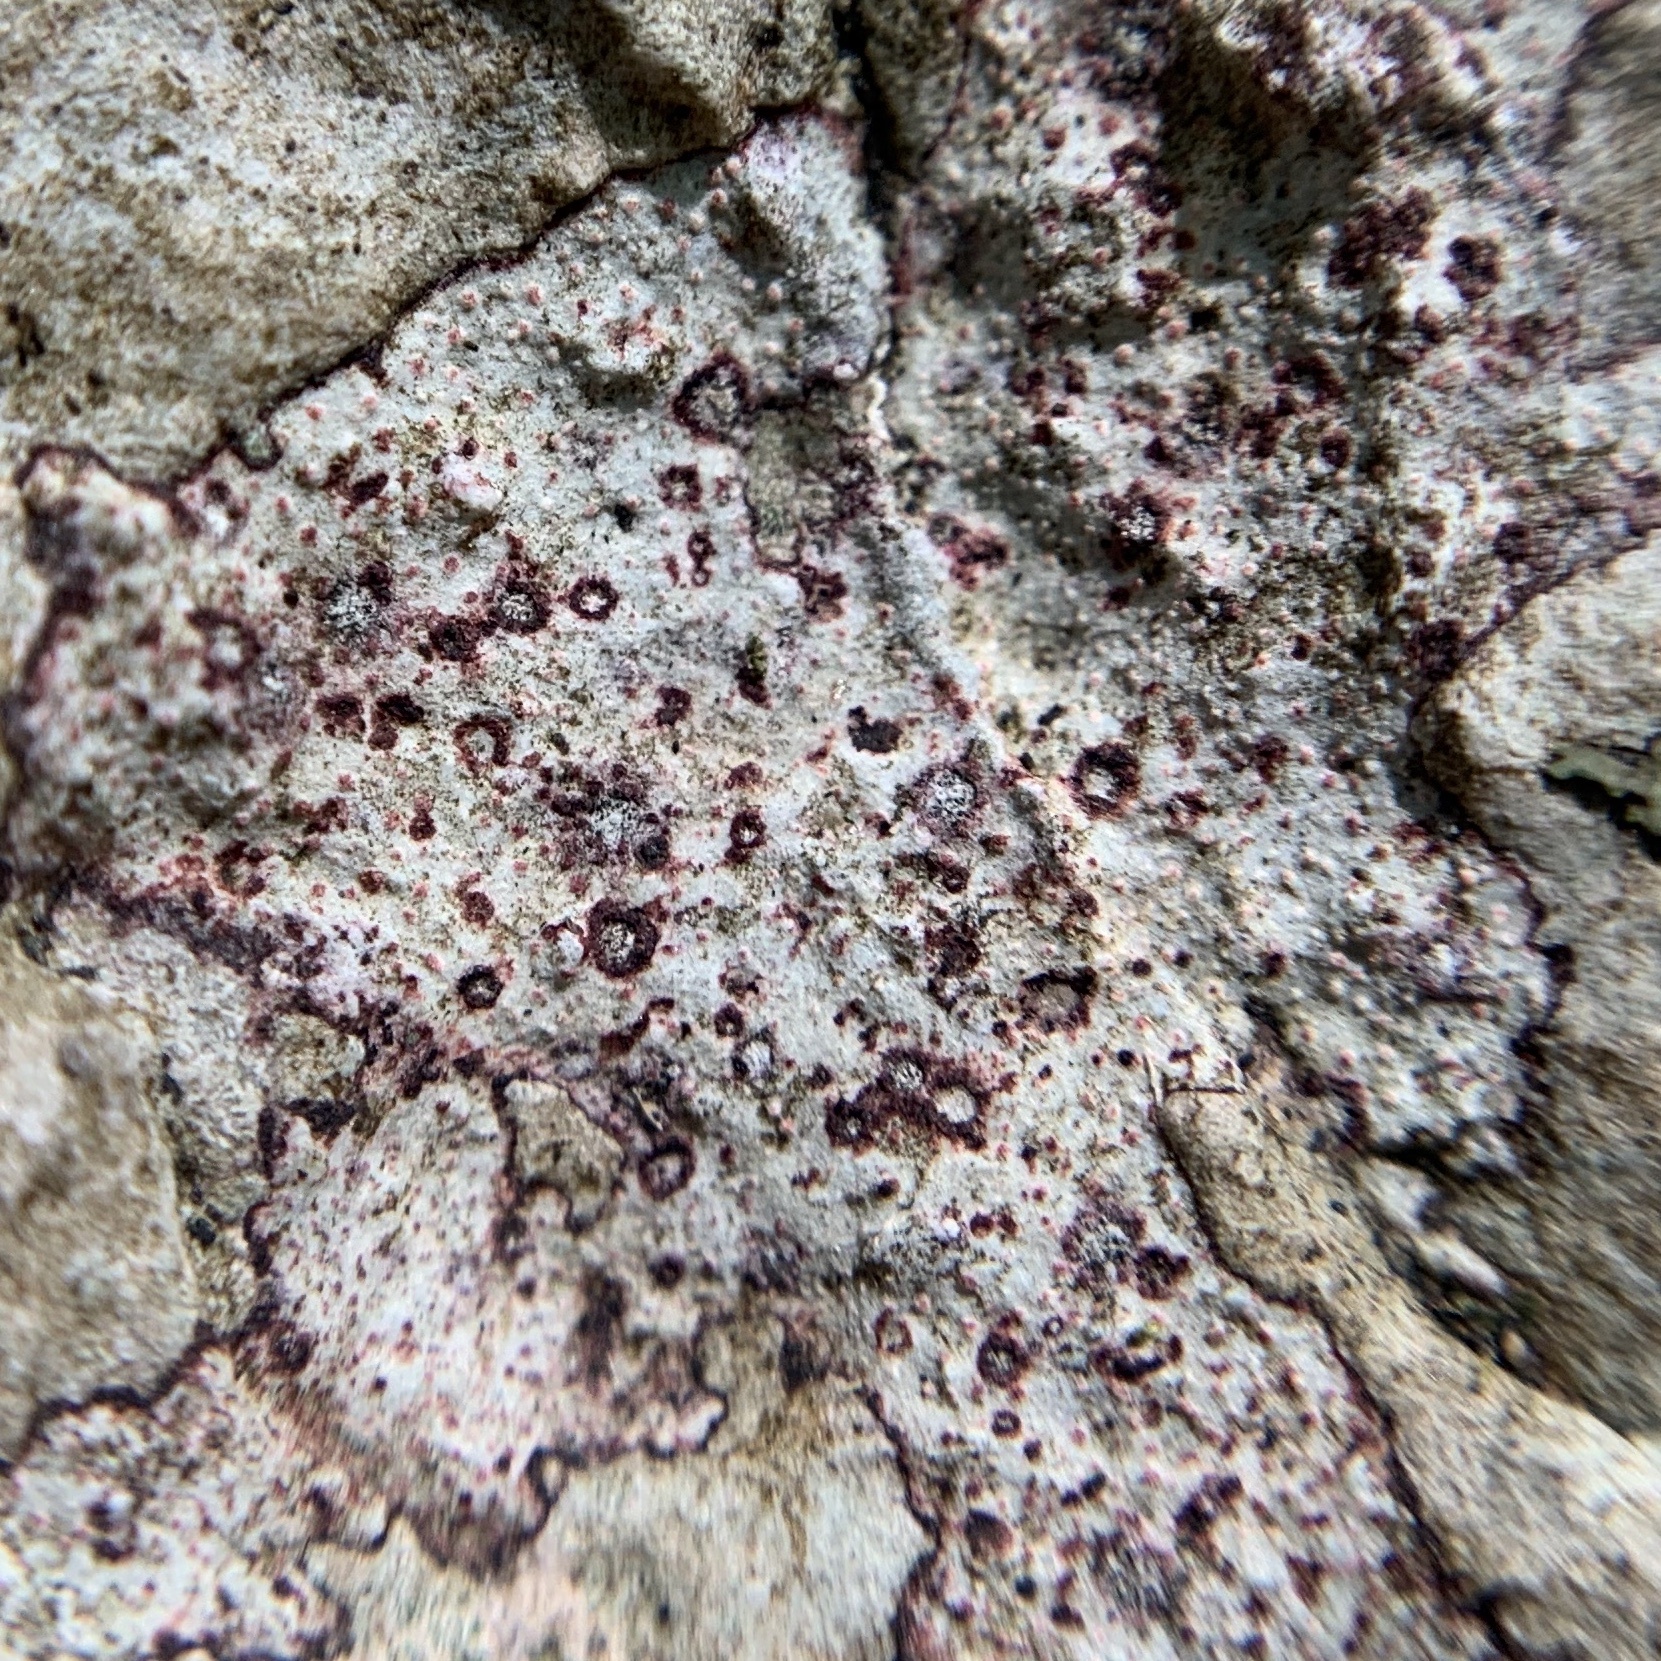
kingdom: Fungi
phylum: Ascomycota
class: Eurotiomycetes
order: Verrucariales
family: Verrucariaceae
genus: Bagliettoa
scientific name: Bagliettoa marmorea
